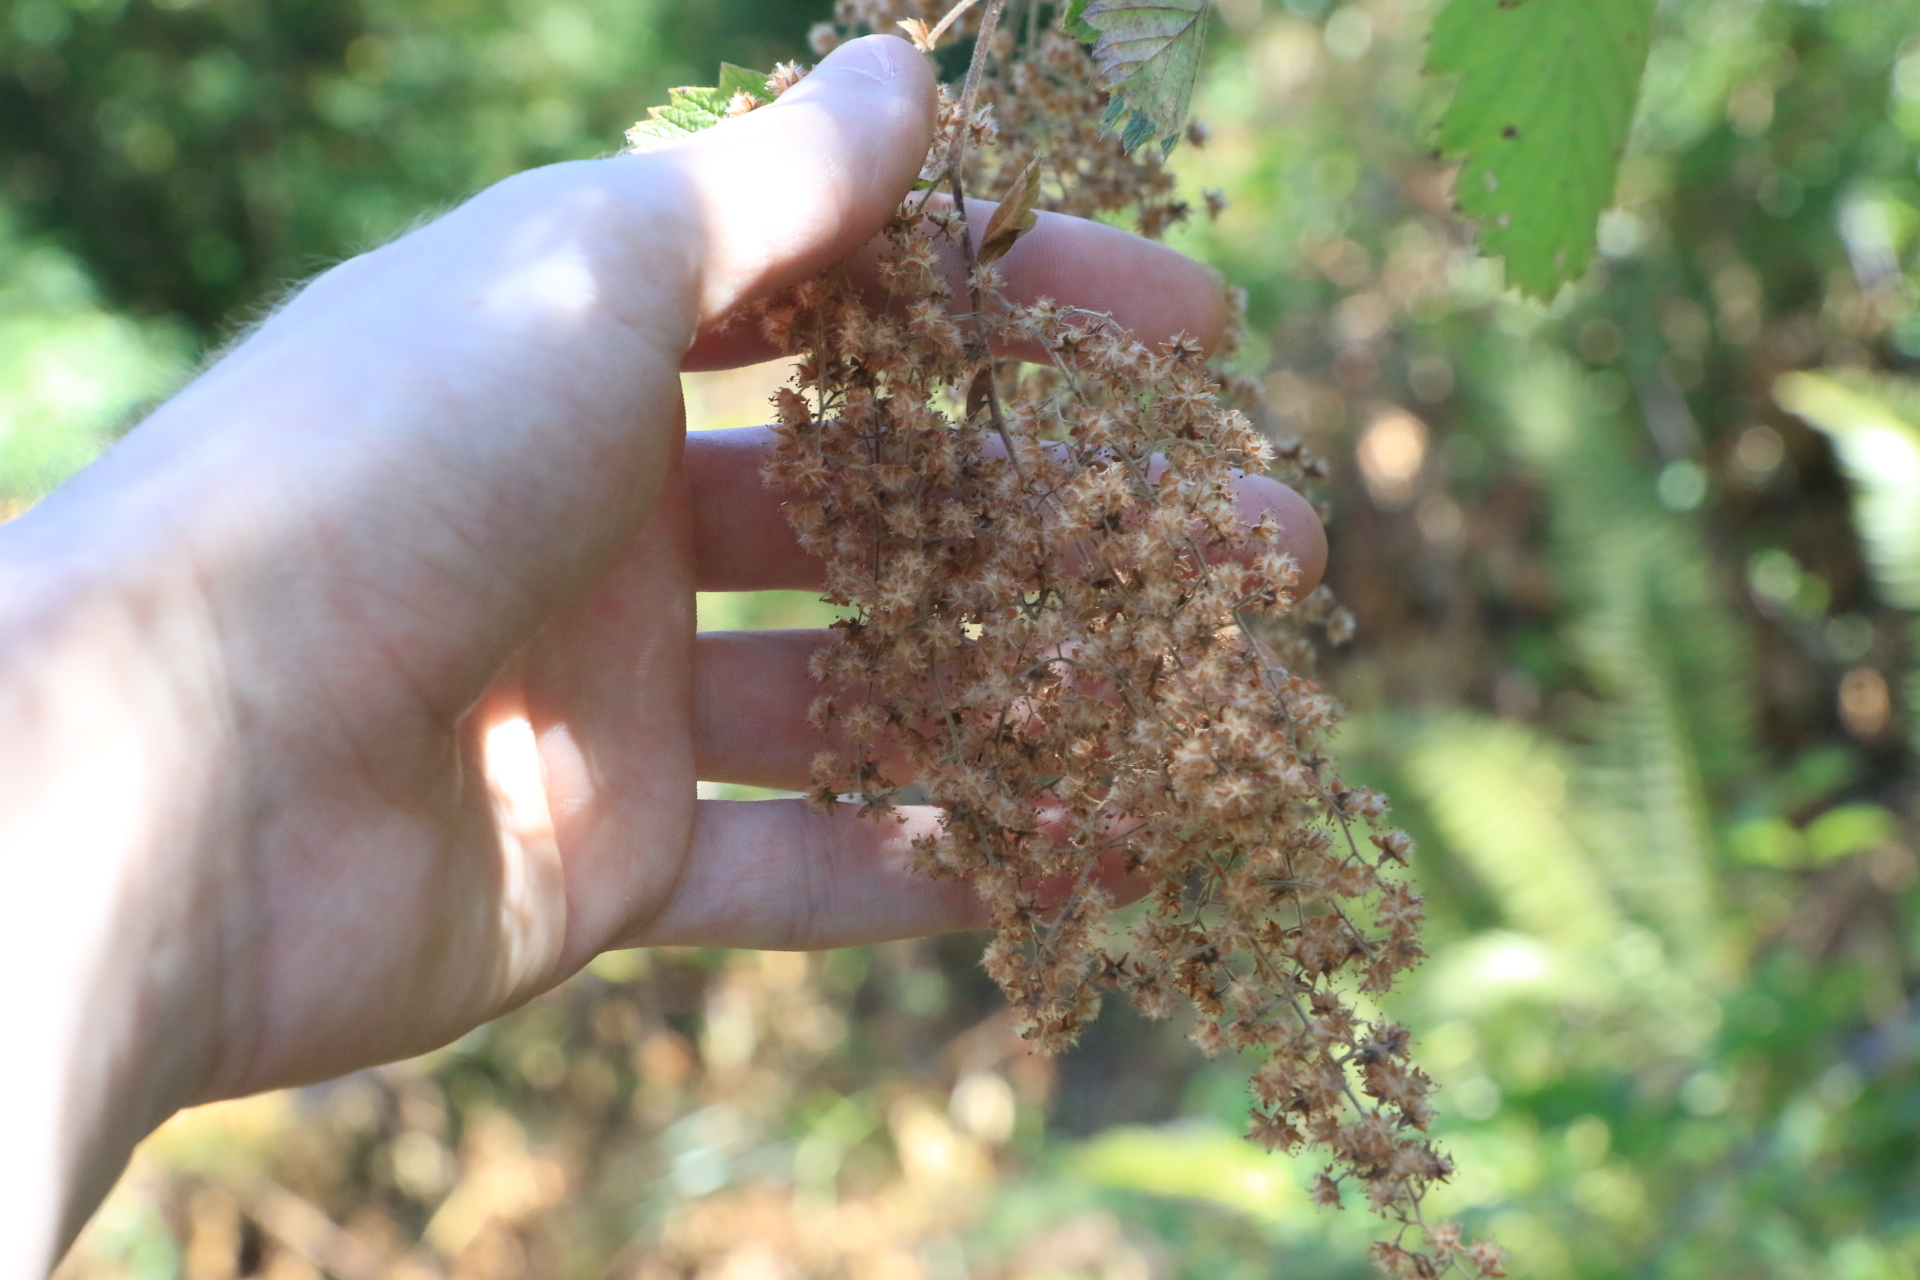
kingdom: Plantae
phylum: Tracheophyta
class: Magnoliopsida
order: Rosales
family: Rosaceae
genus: Holodiscus
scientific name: Holodiscus discolor
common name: Oceanspray
